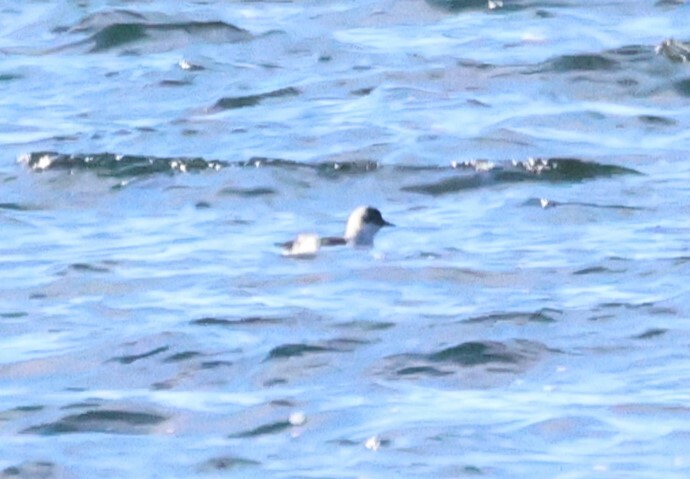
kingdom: Animalia
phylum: Chordata
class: Aves
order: Charadriiformes
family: Alcidae
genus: Cepphus
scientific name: Cepphus grylle
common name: Black guillemot
